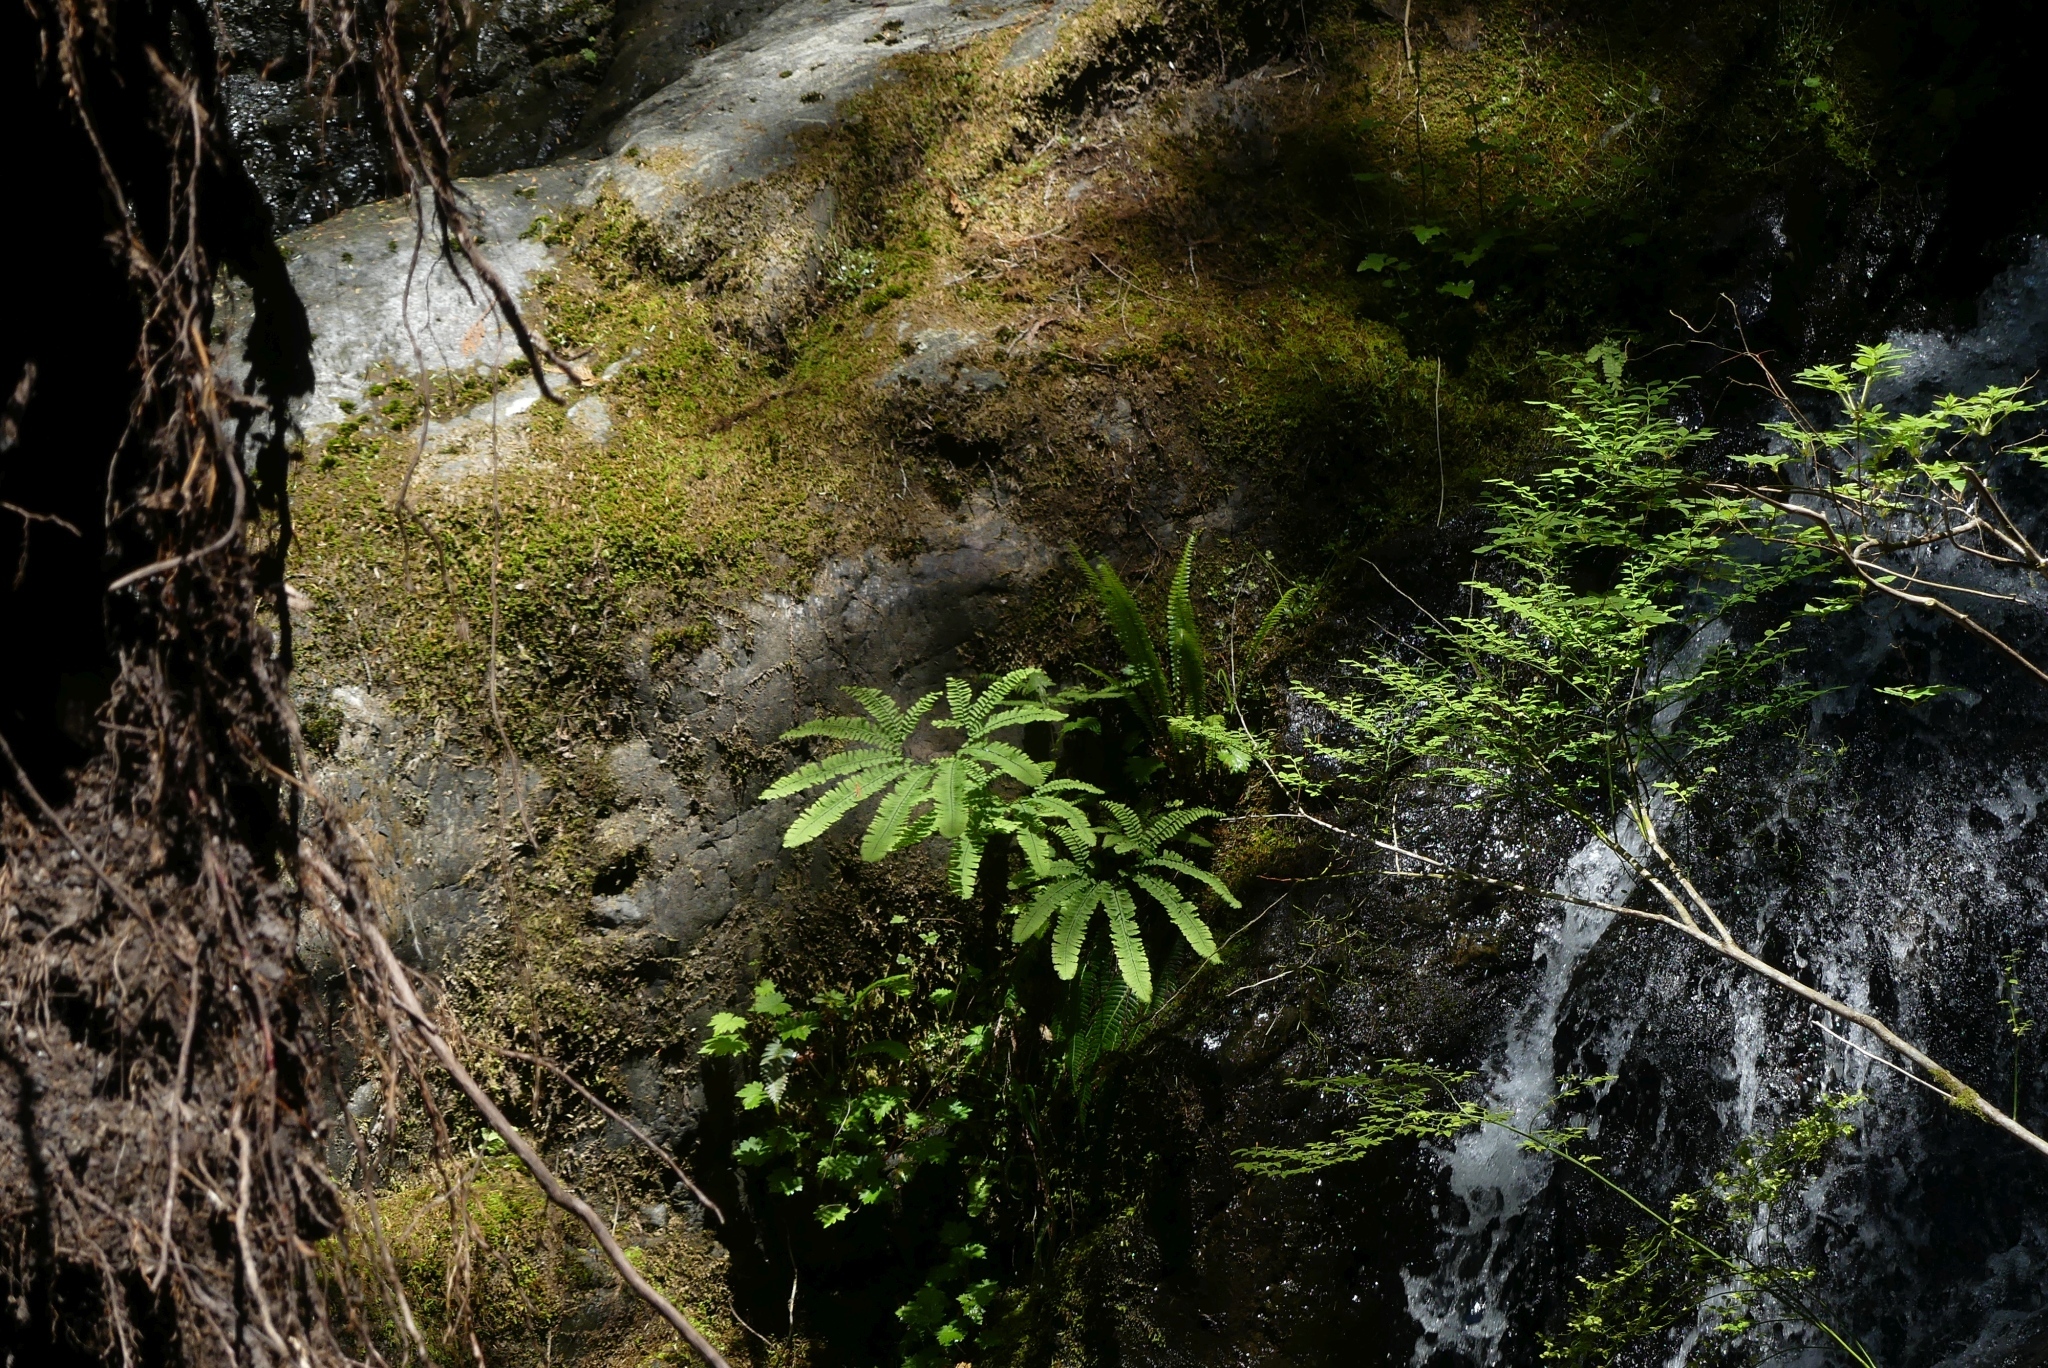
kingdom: Plantae
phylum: Tracheophyta
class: Polypodiopsida
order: Polypodiales
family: Pteridaceae
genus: Adiantum
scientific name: Adiantum aleuticum
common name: Aleutian maidenhair fern
